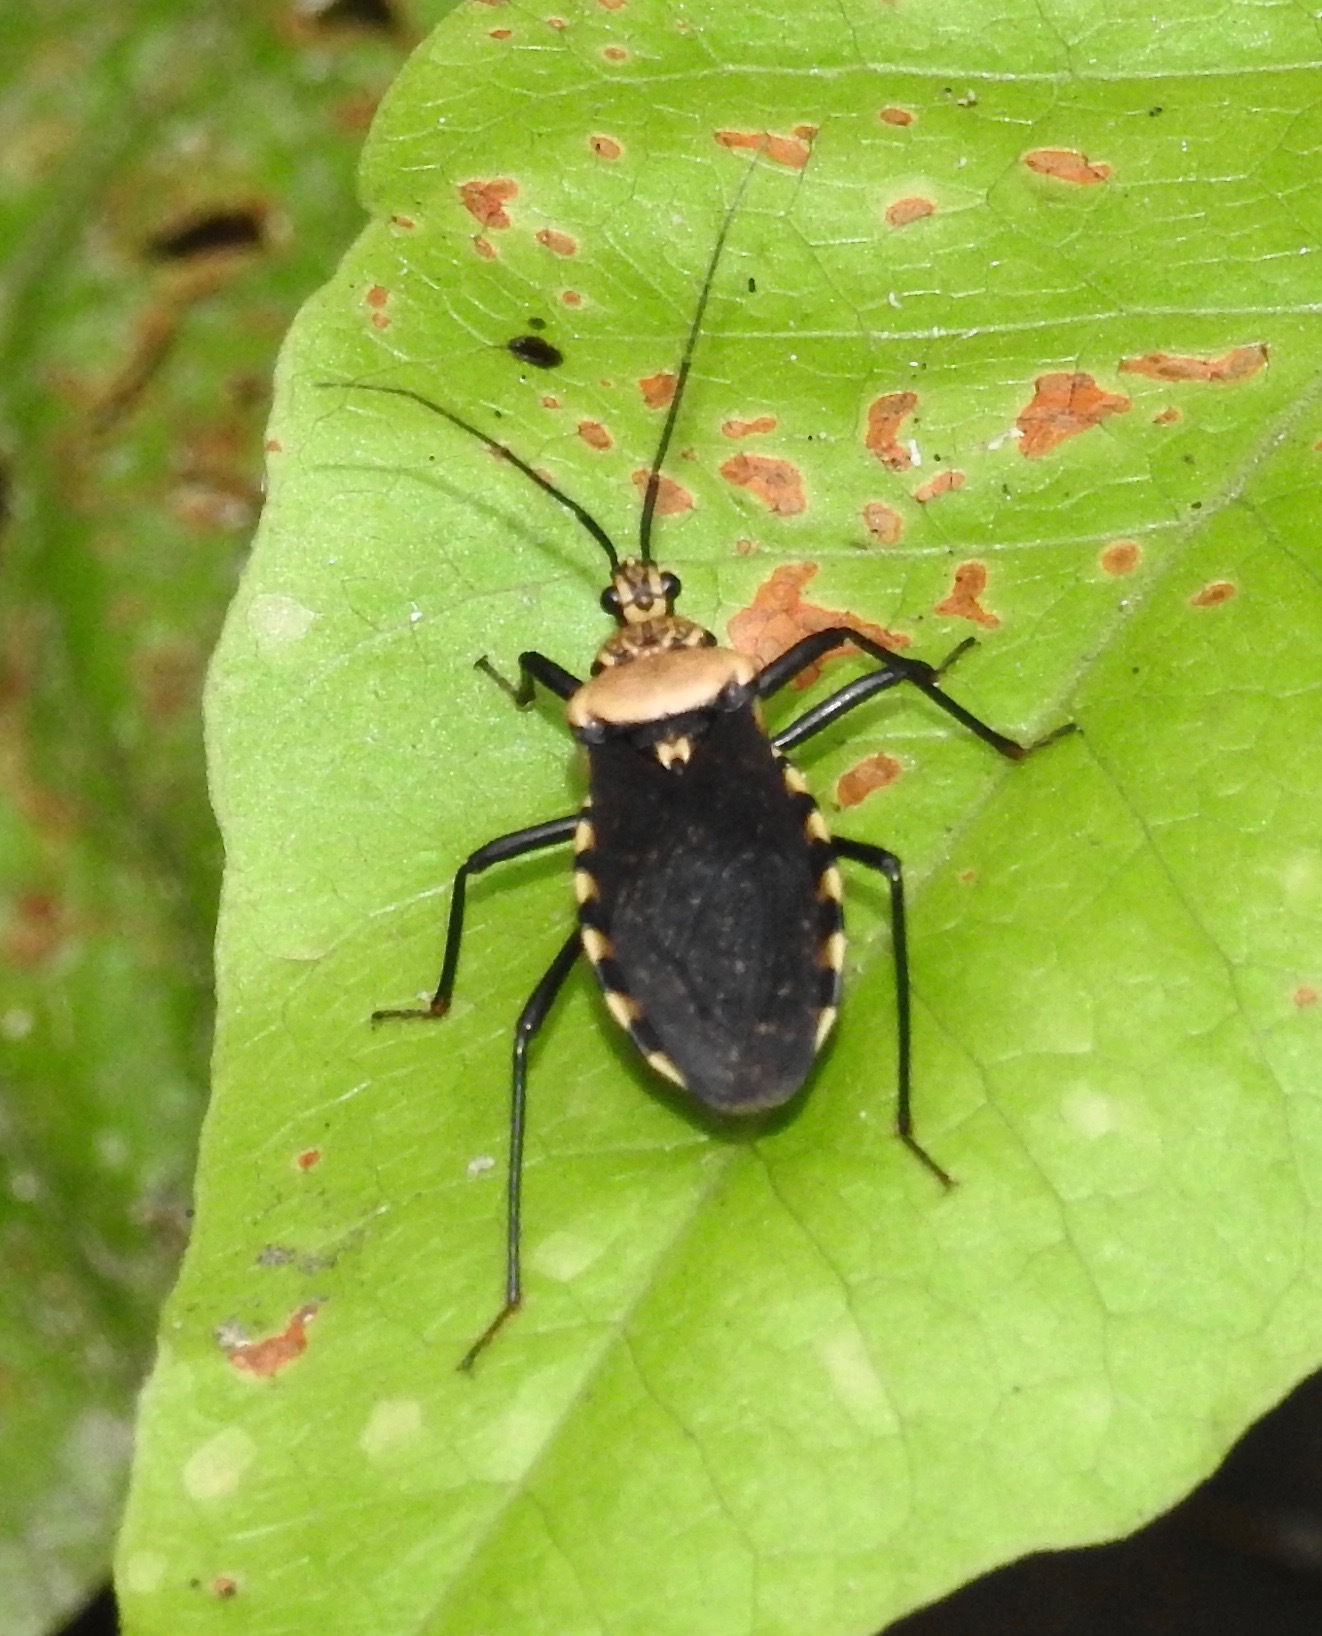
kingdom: Animalia
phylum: Arthropoda
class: Insecta
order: Hemiptera
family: Reduviidae
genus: Rhiginia
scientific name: Rhiginia conspersa
